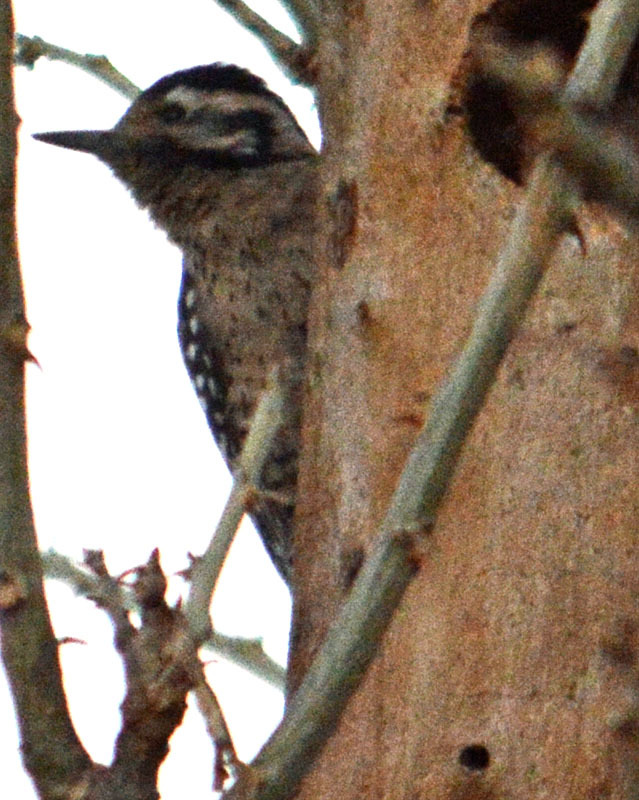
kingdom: Animalia
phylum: Chordata
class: Aves
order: Piciformes
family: Picidae
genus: Dryobates
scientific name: Dryobates scalaris
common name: Ladder-backed woodpecker
